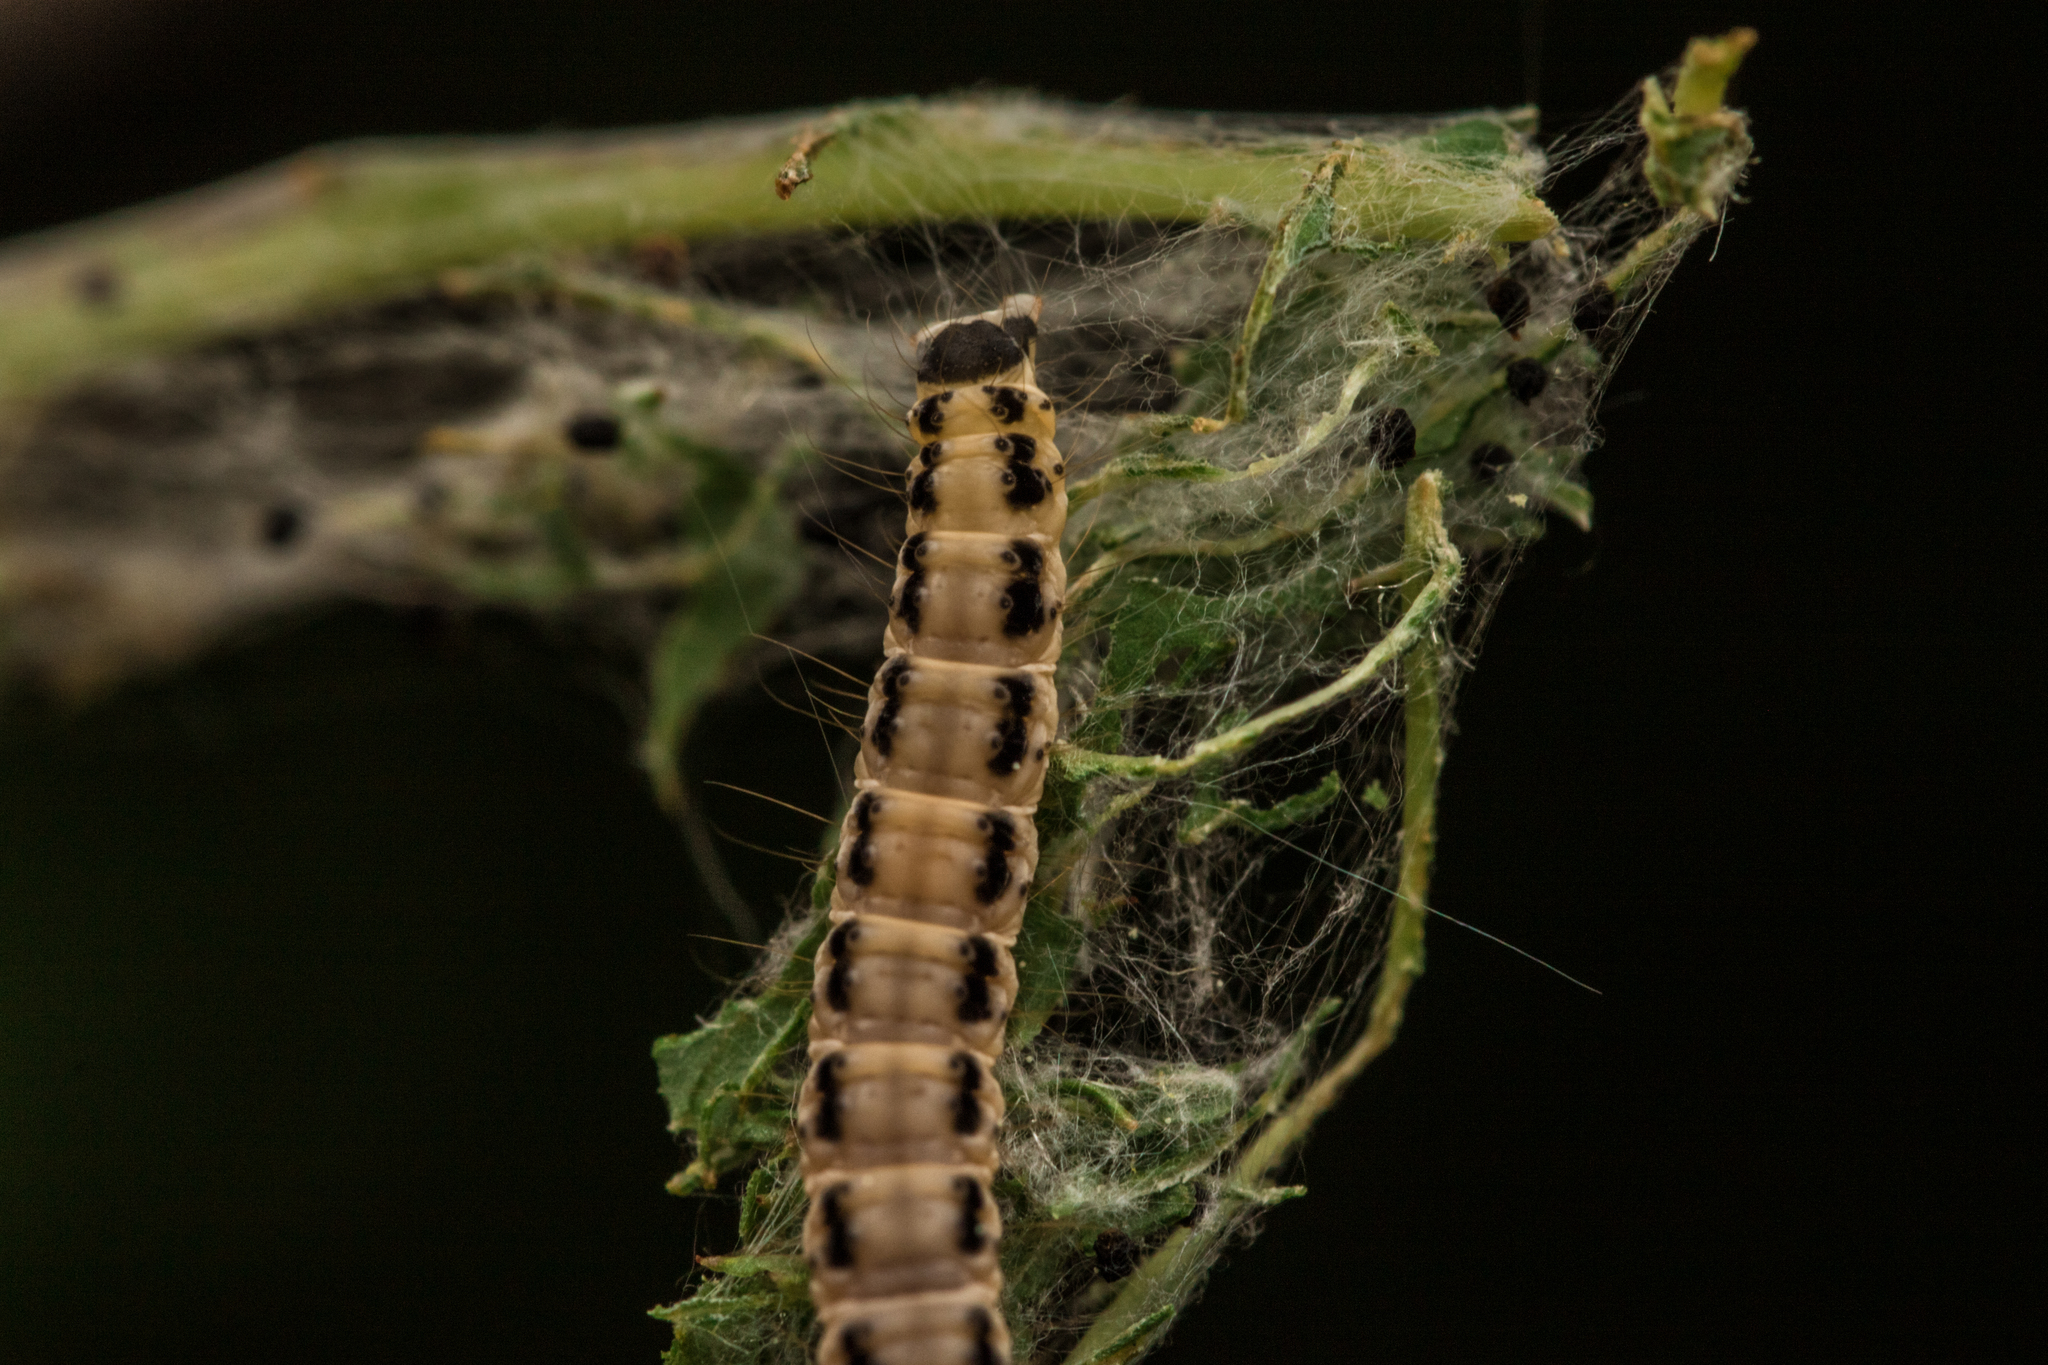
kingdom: Animalia
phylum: Arthropoda
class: Insecta
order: Lepidoptera
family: Yponomeutidae
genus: Yponomeuta
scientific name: Yponomeuta evonymella
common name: Bird-cherry ermine
